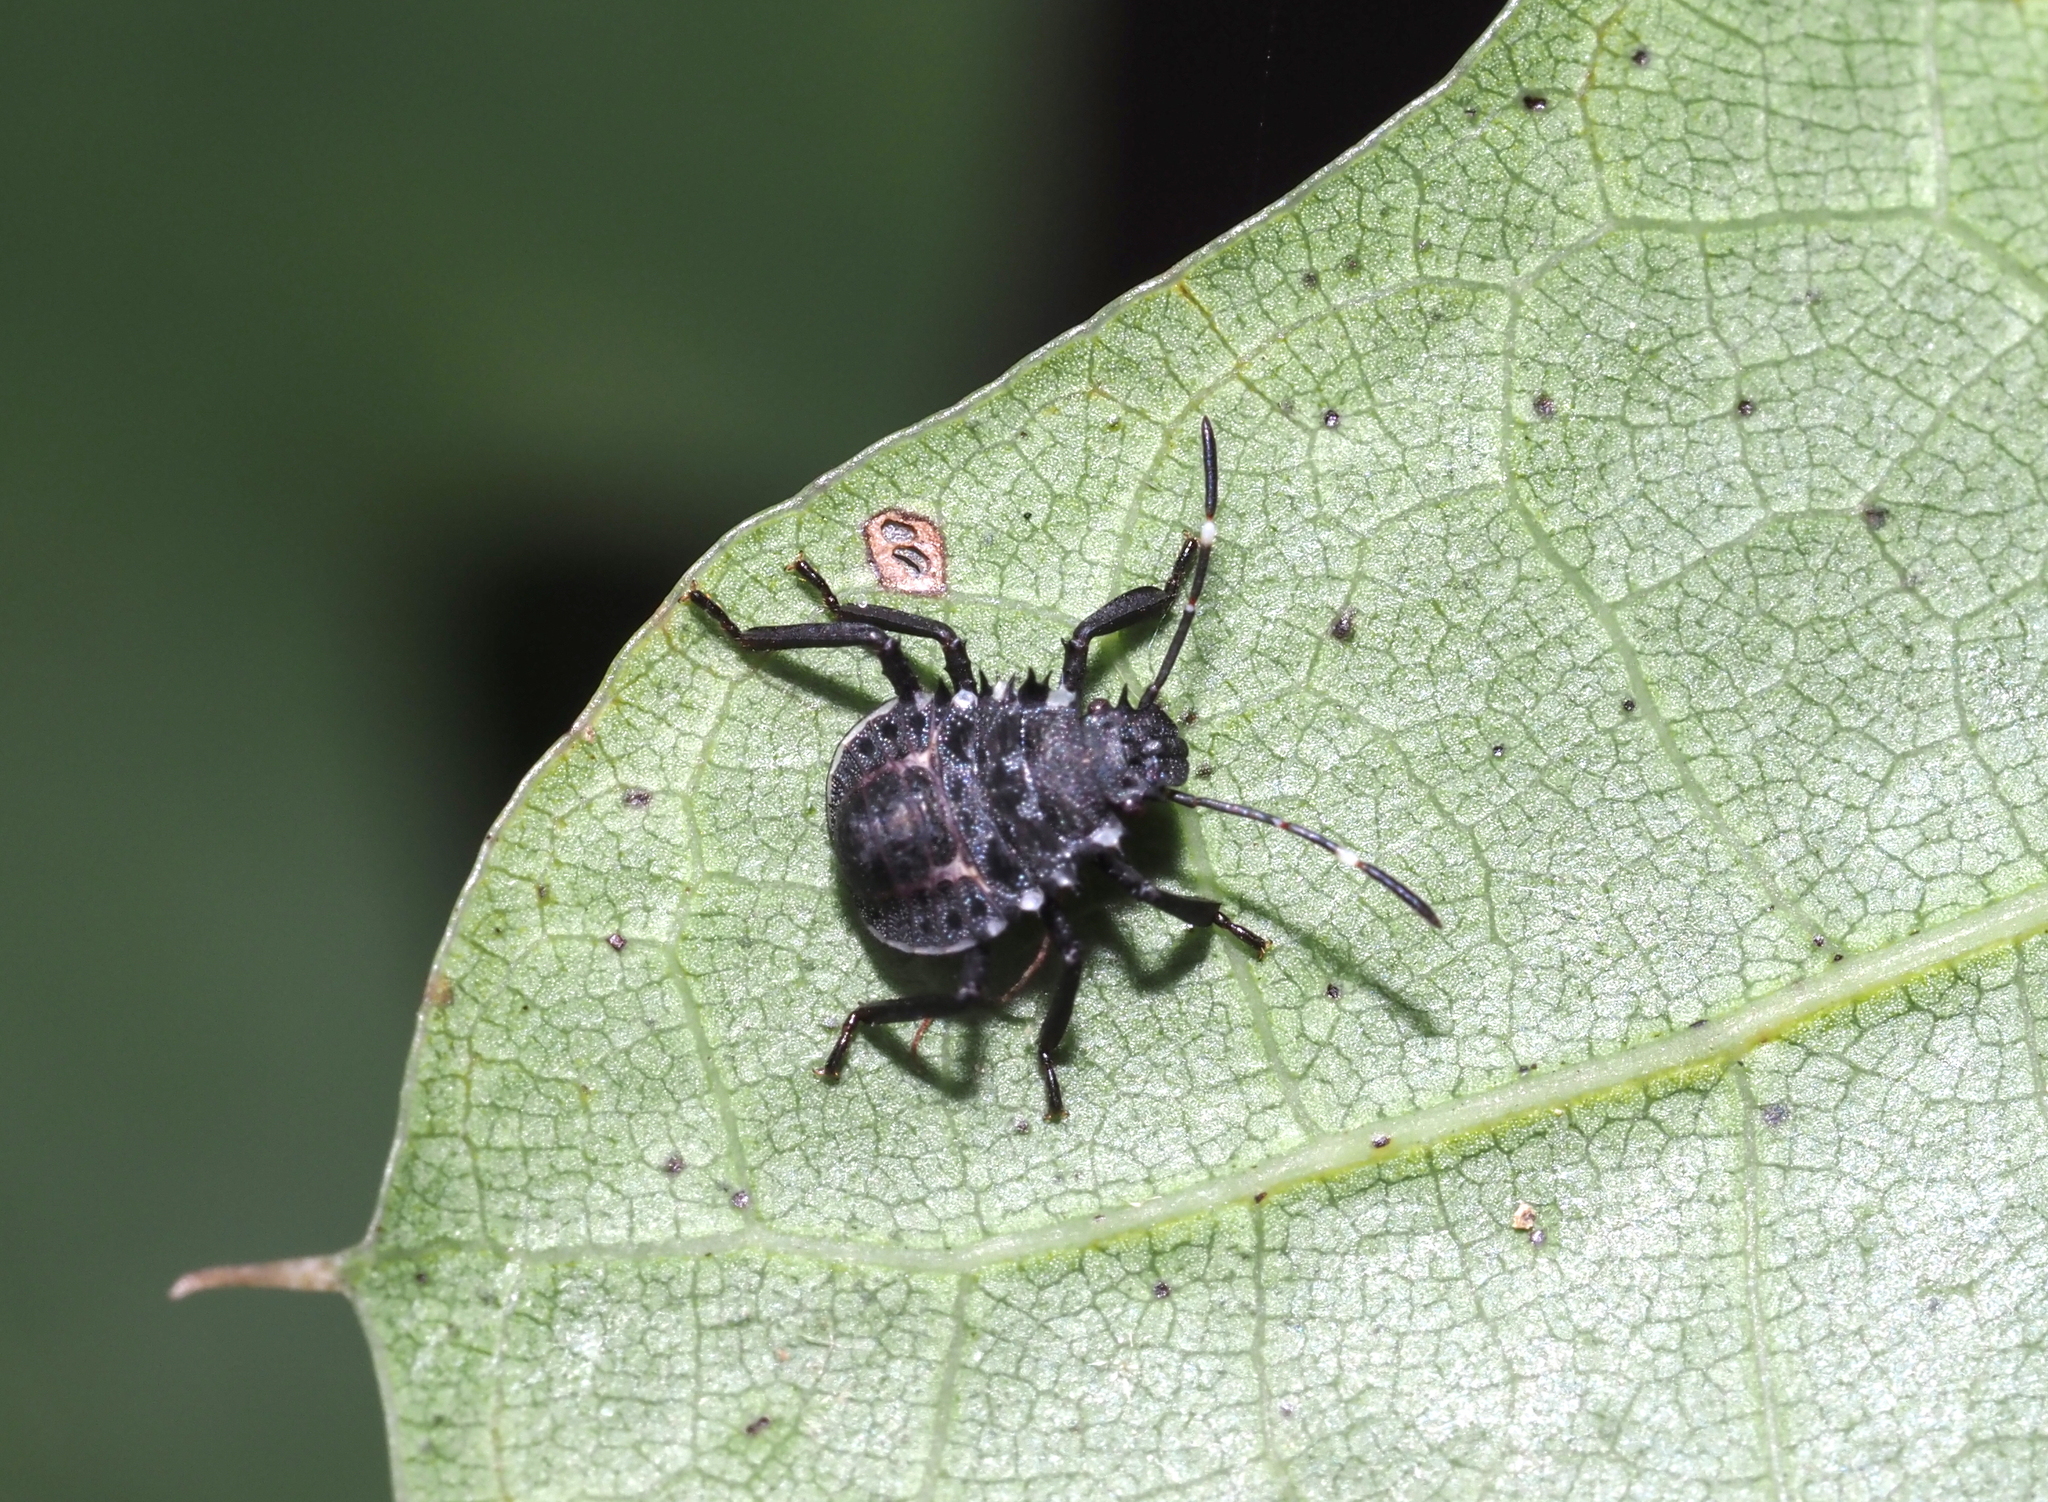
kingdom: Animalia
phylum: Arthropoda
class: Insecta
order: Hemiptera
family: Pentatomidae
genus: Halyomorpha
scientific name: Halyomorpha halys
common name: Brown marmorated stink bug
